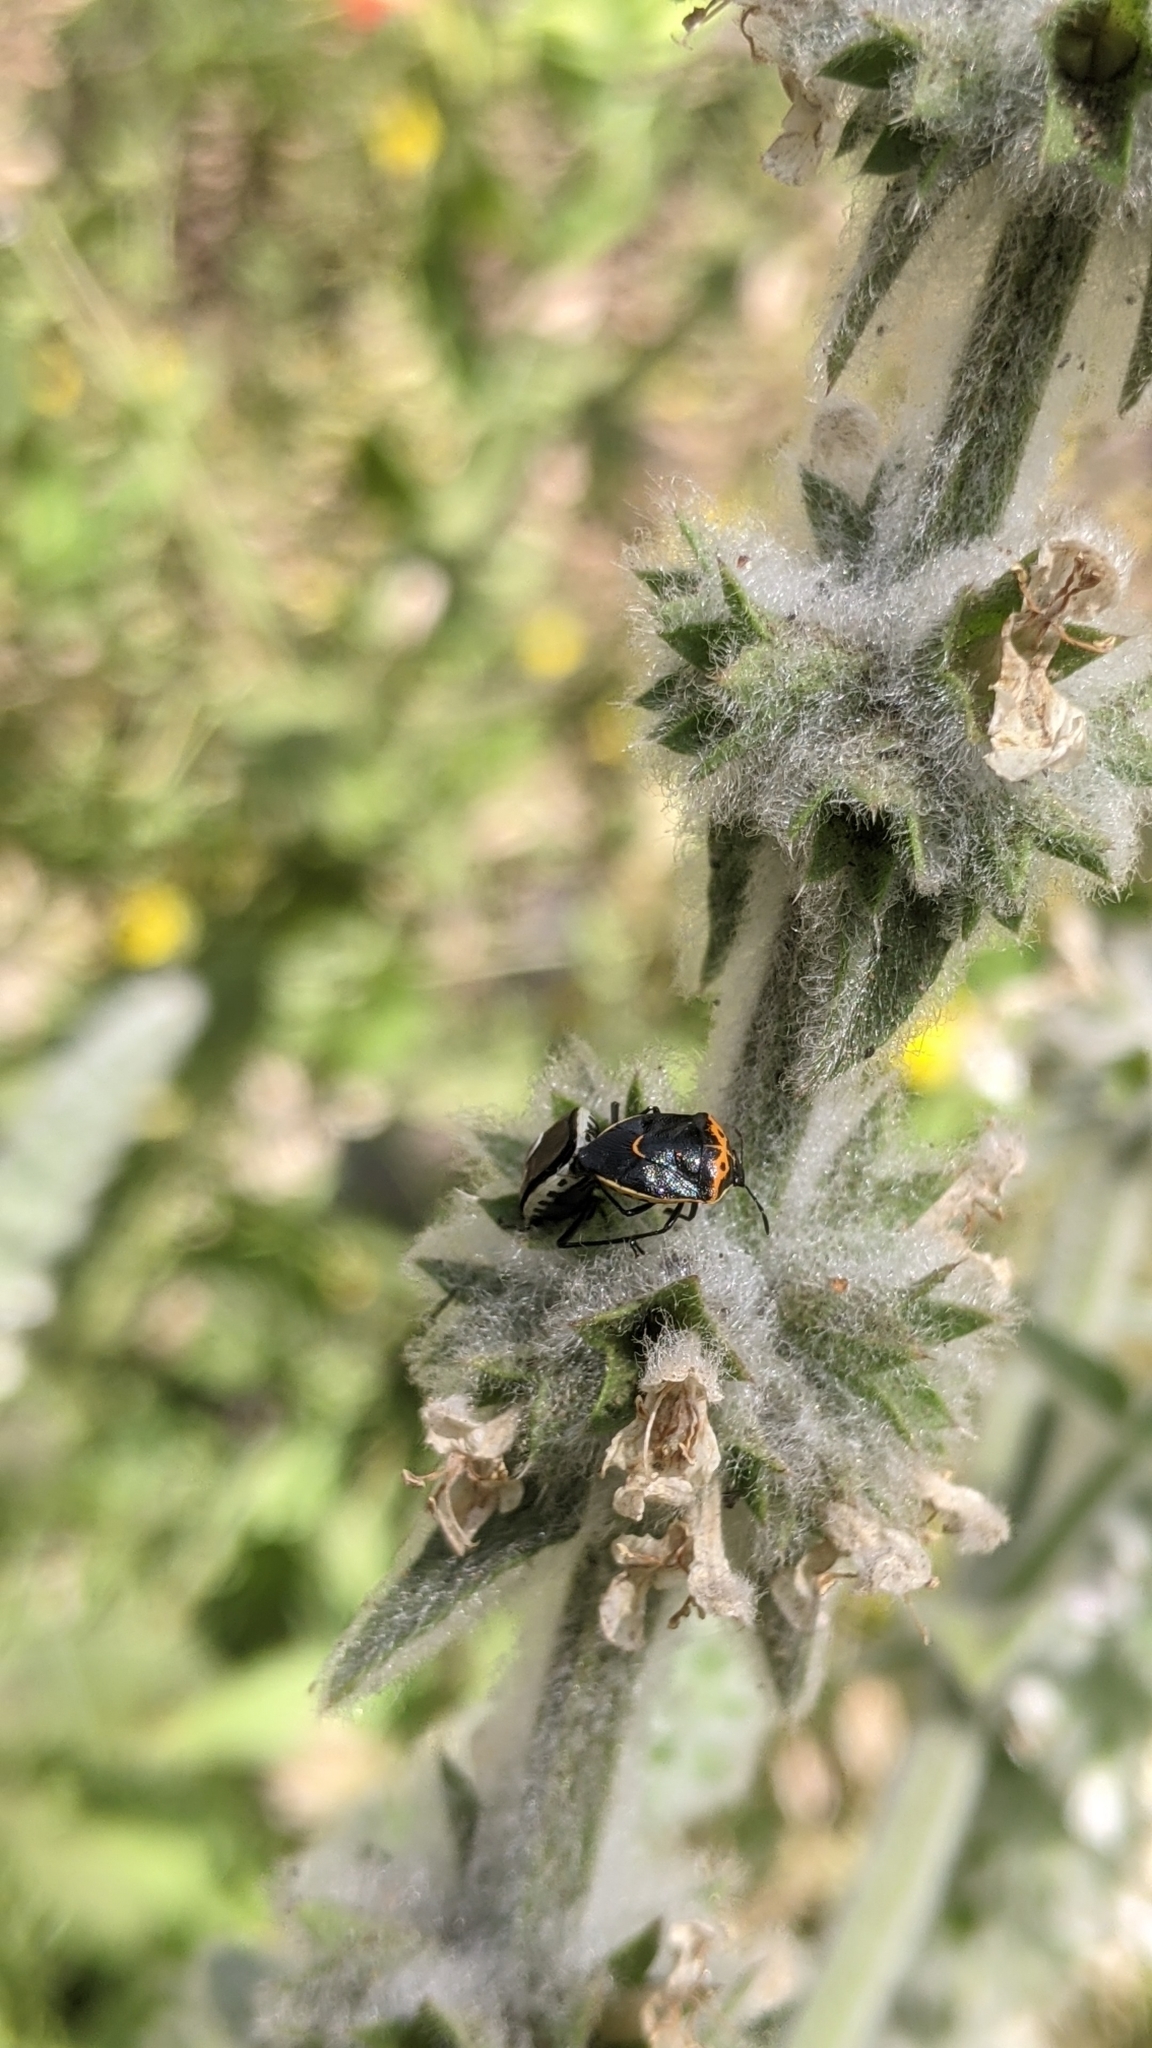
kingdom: Animalia
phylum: Arthropoda
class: Insecta
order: Hemiptera
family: Pentatomidae
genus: Cosmopepla
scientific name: Cosmopepla conspicillaris
